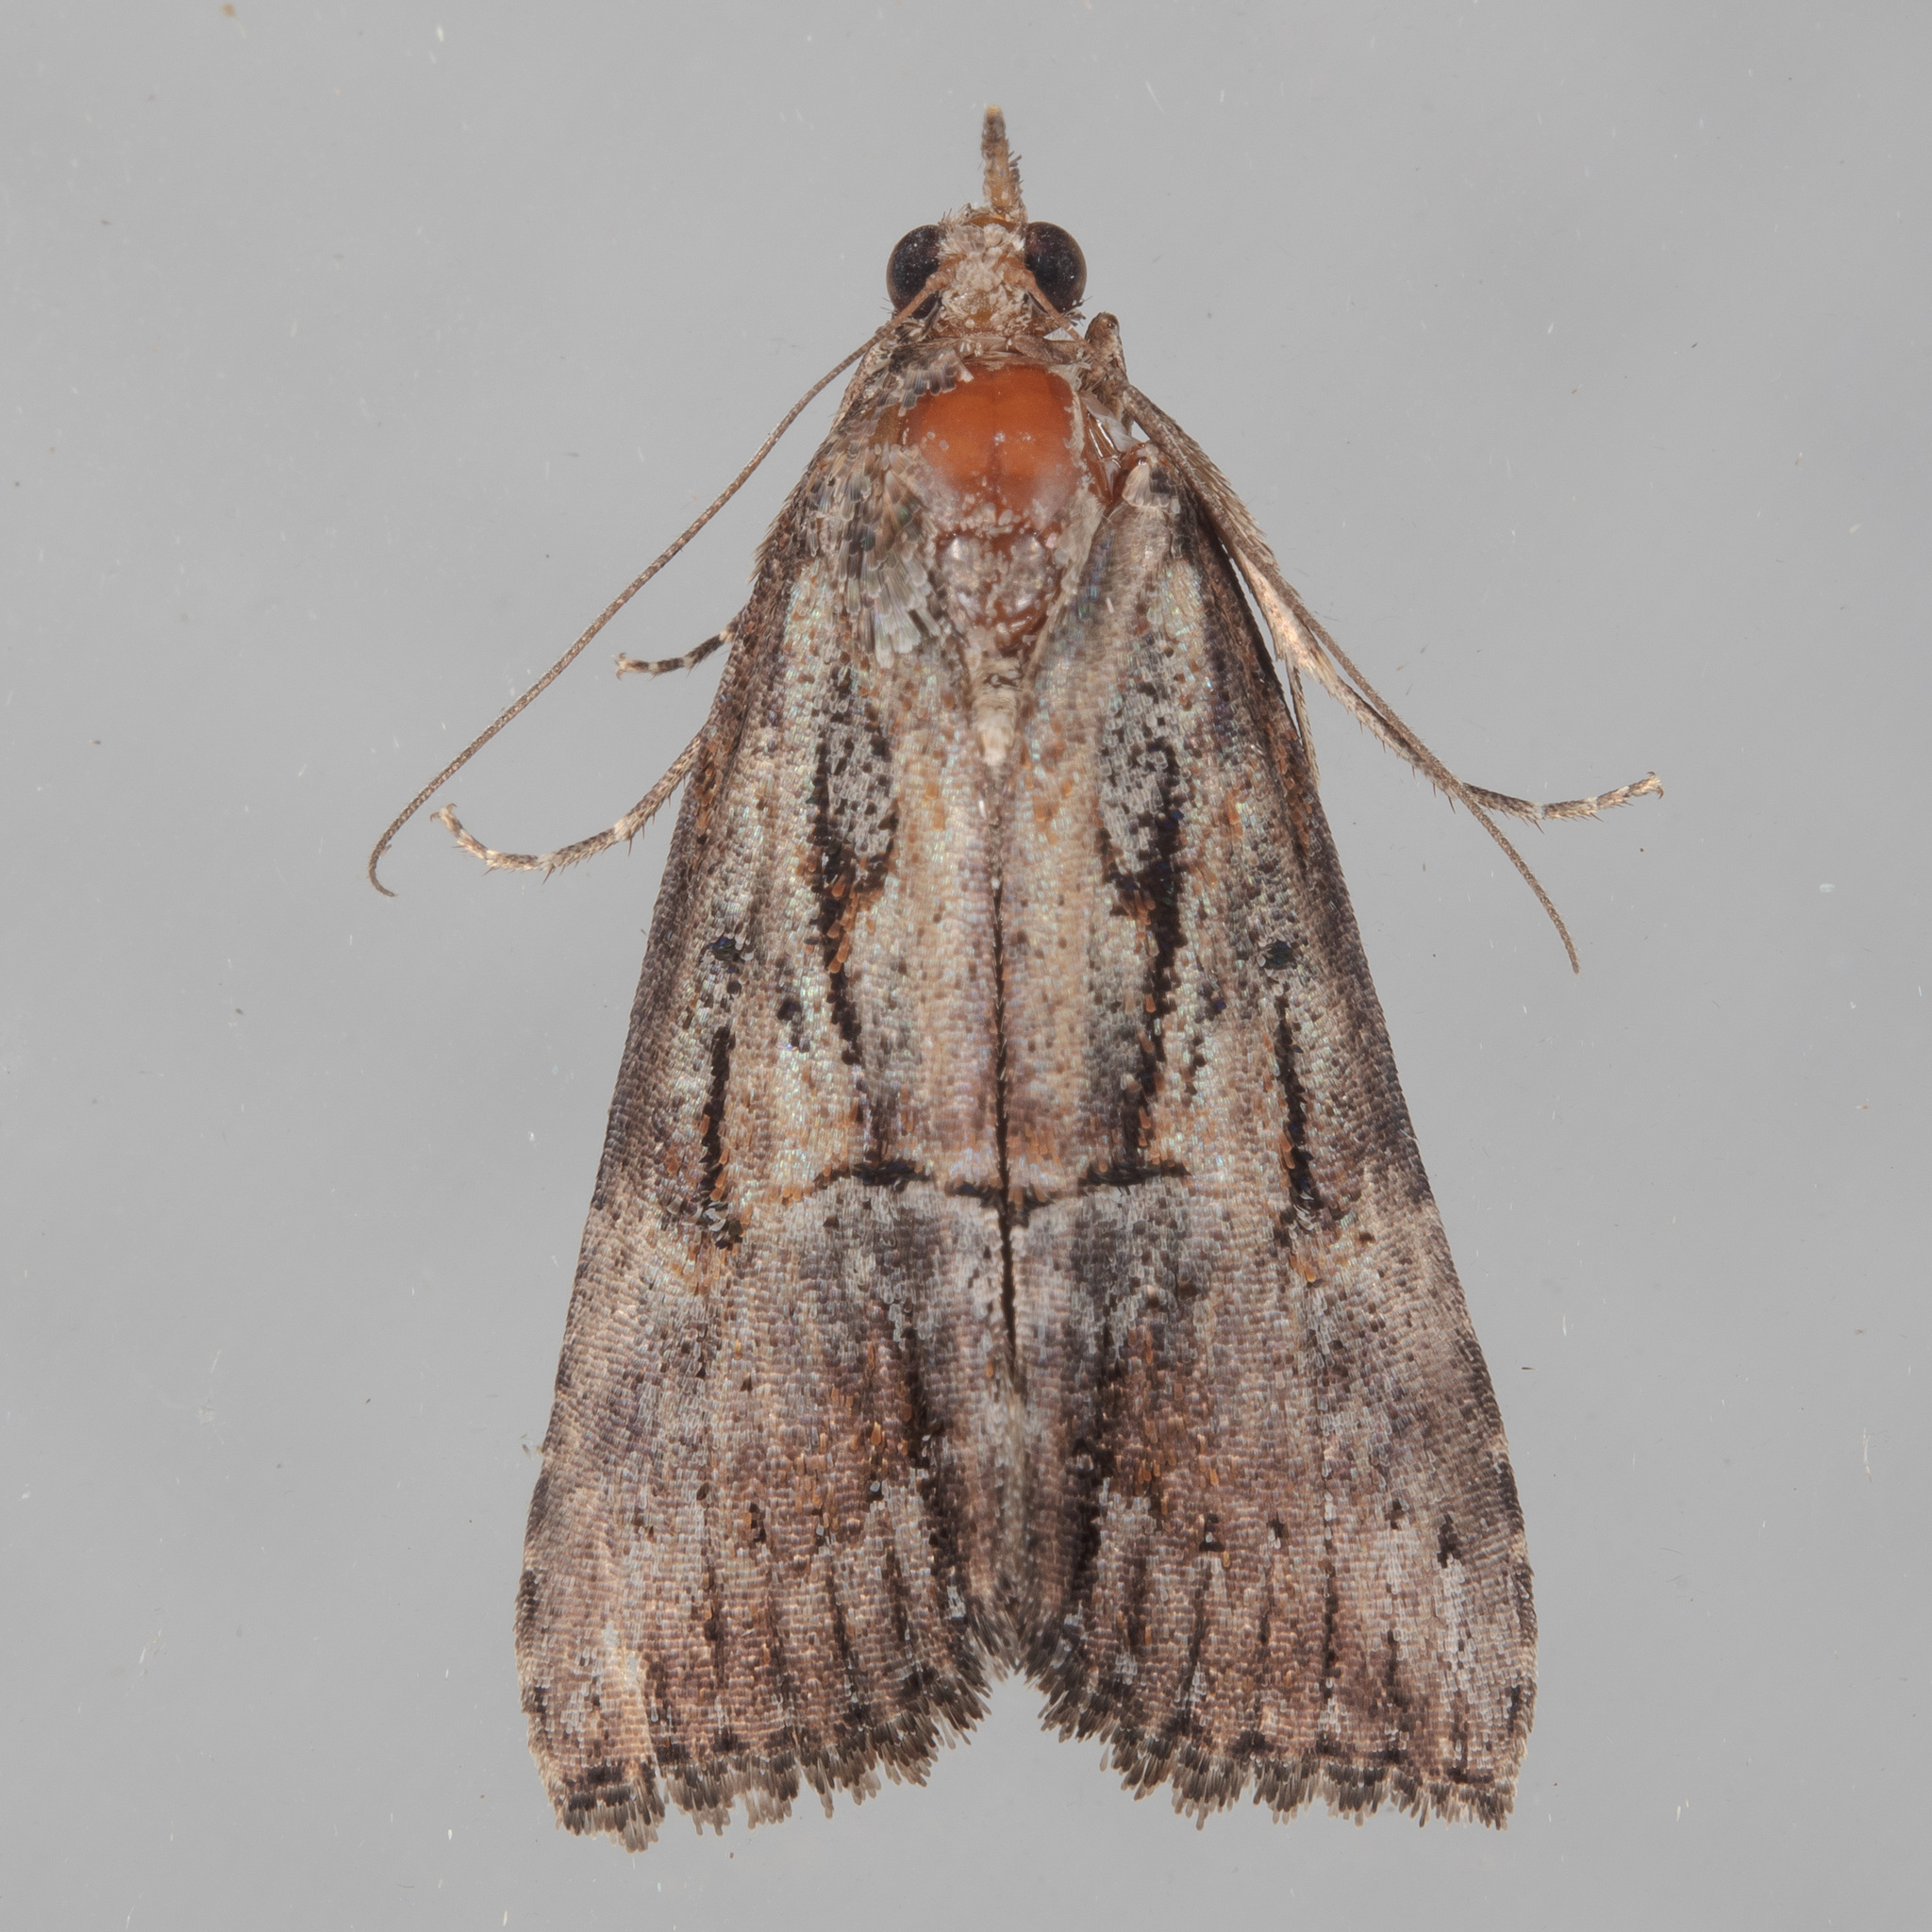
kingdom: Animalia
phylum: Arthropoda
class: Insecta
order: Lepidoptera
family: Erebidae
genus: Hypena
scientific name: Hypena scabra
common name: Green cloverworm
